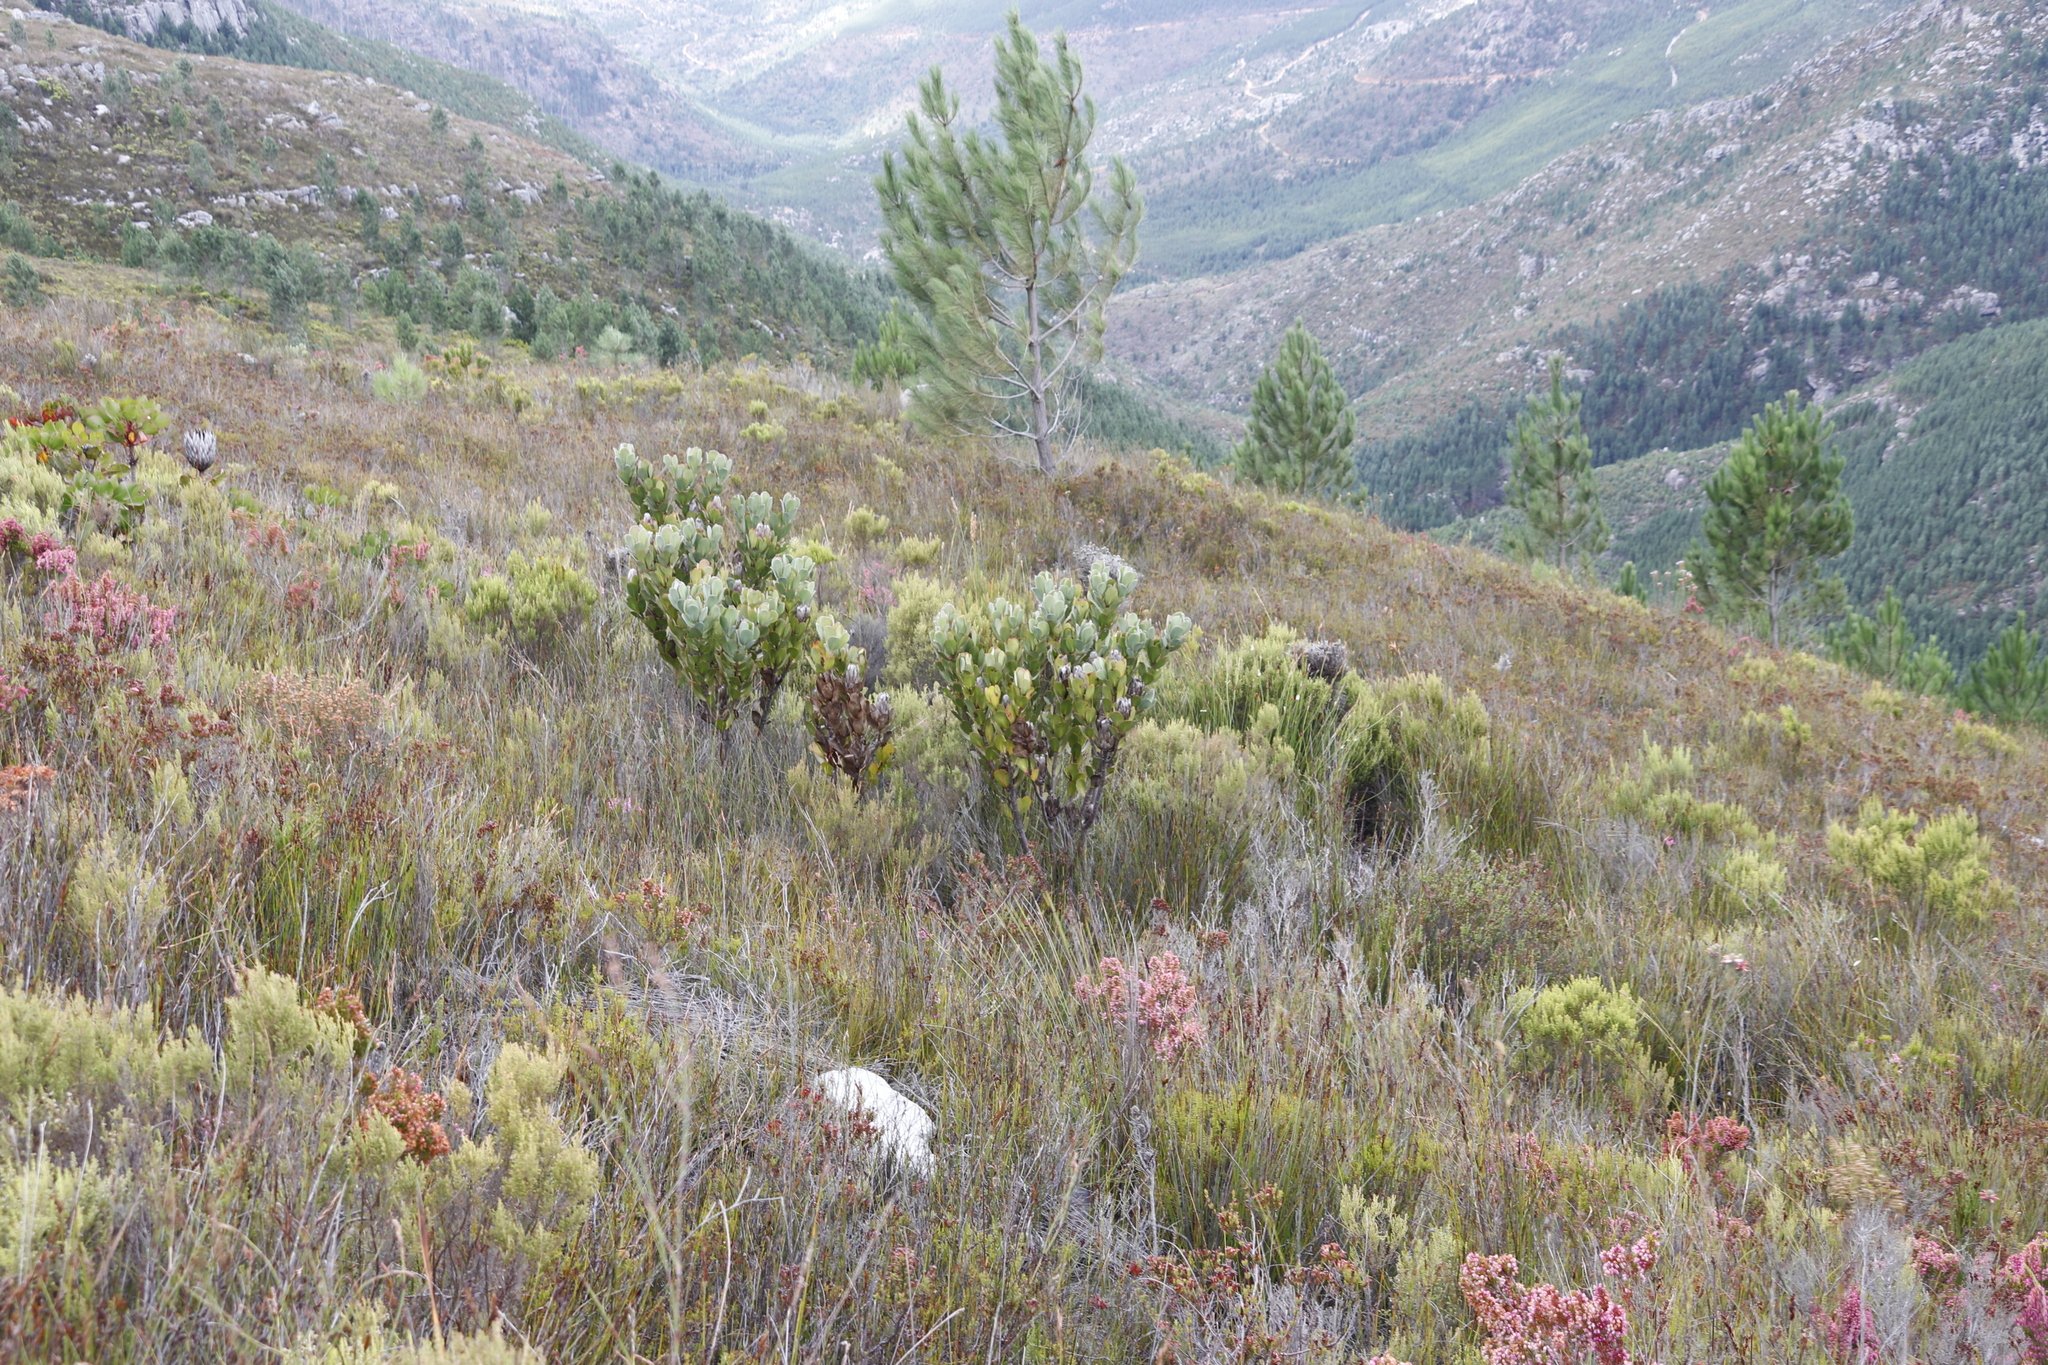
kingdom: Plantae
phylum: Tracheophyta
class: Magnoliopsida
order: Proteales
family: Proteaceae
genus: Protea
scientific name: Protea stokoei
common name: Pink sugarbush
